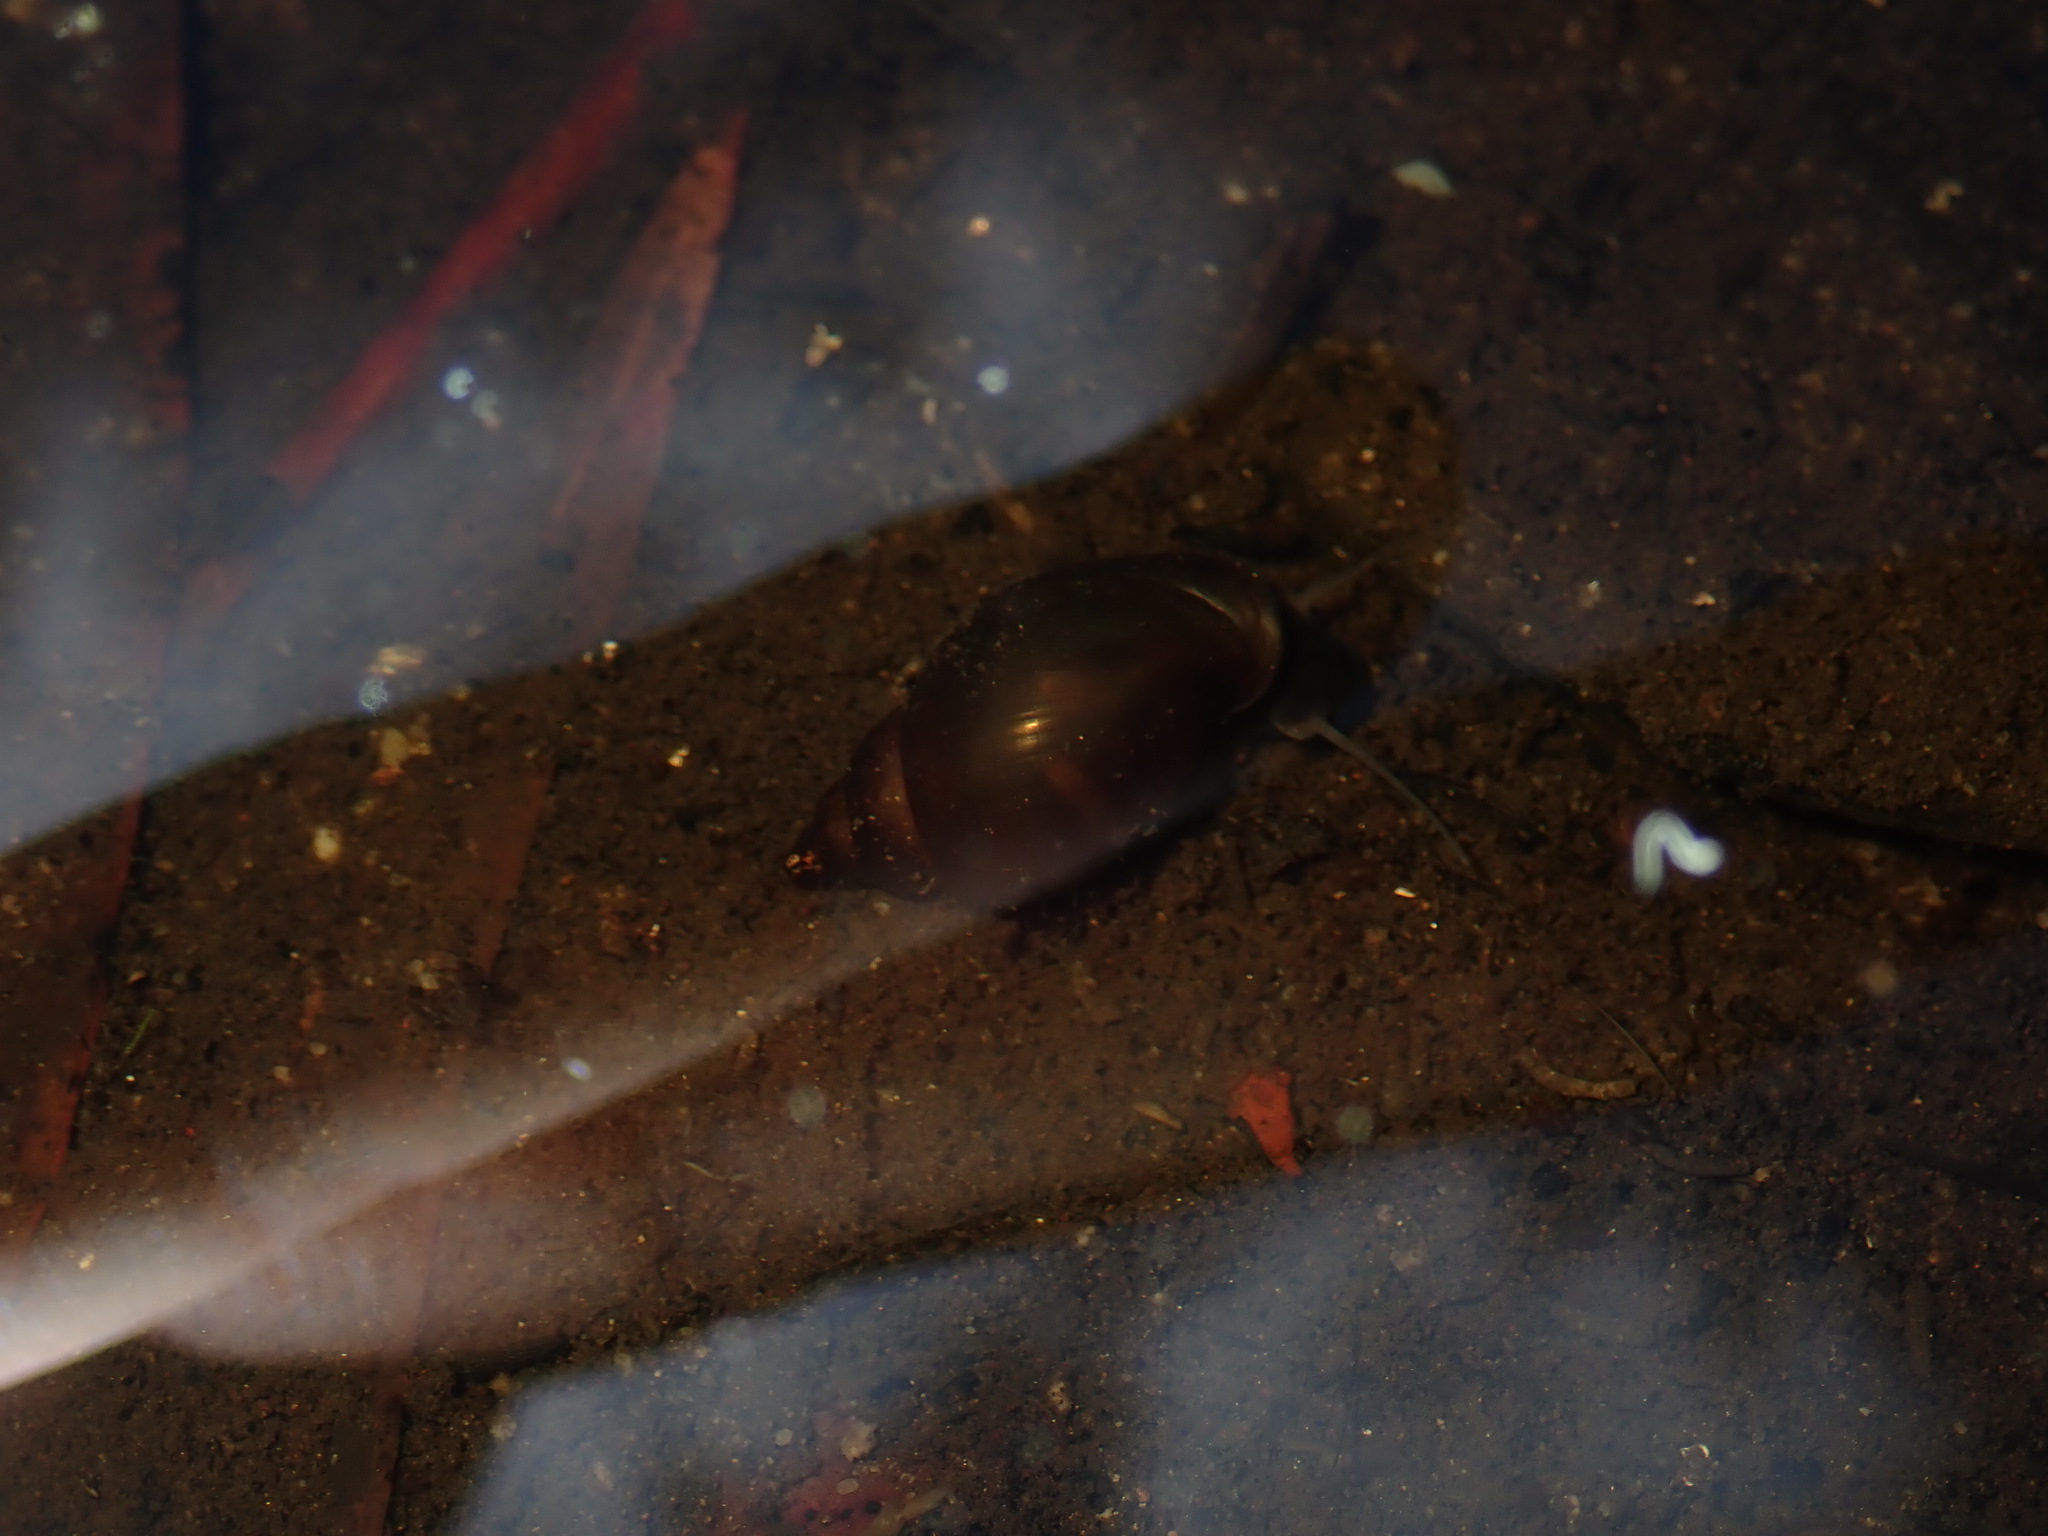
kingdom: Animalia
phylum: Mollusca
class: Gastropoda
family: Physidae
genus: Physella
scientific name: Physella acuta
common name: European physa
